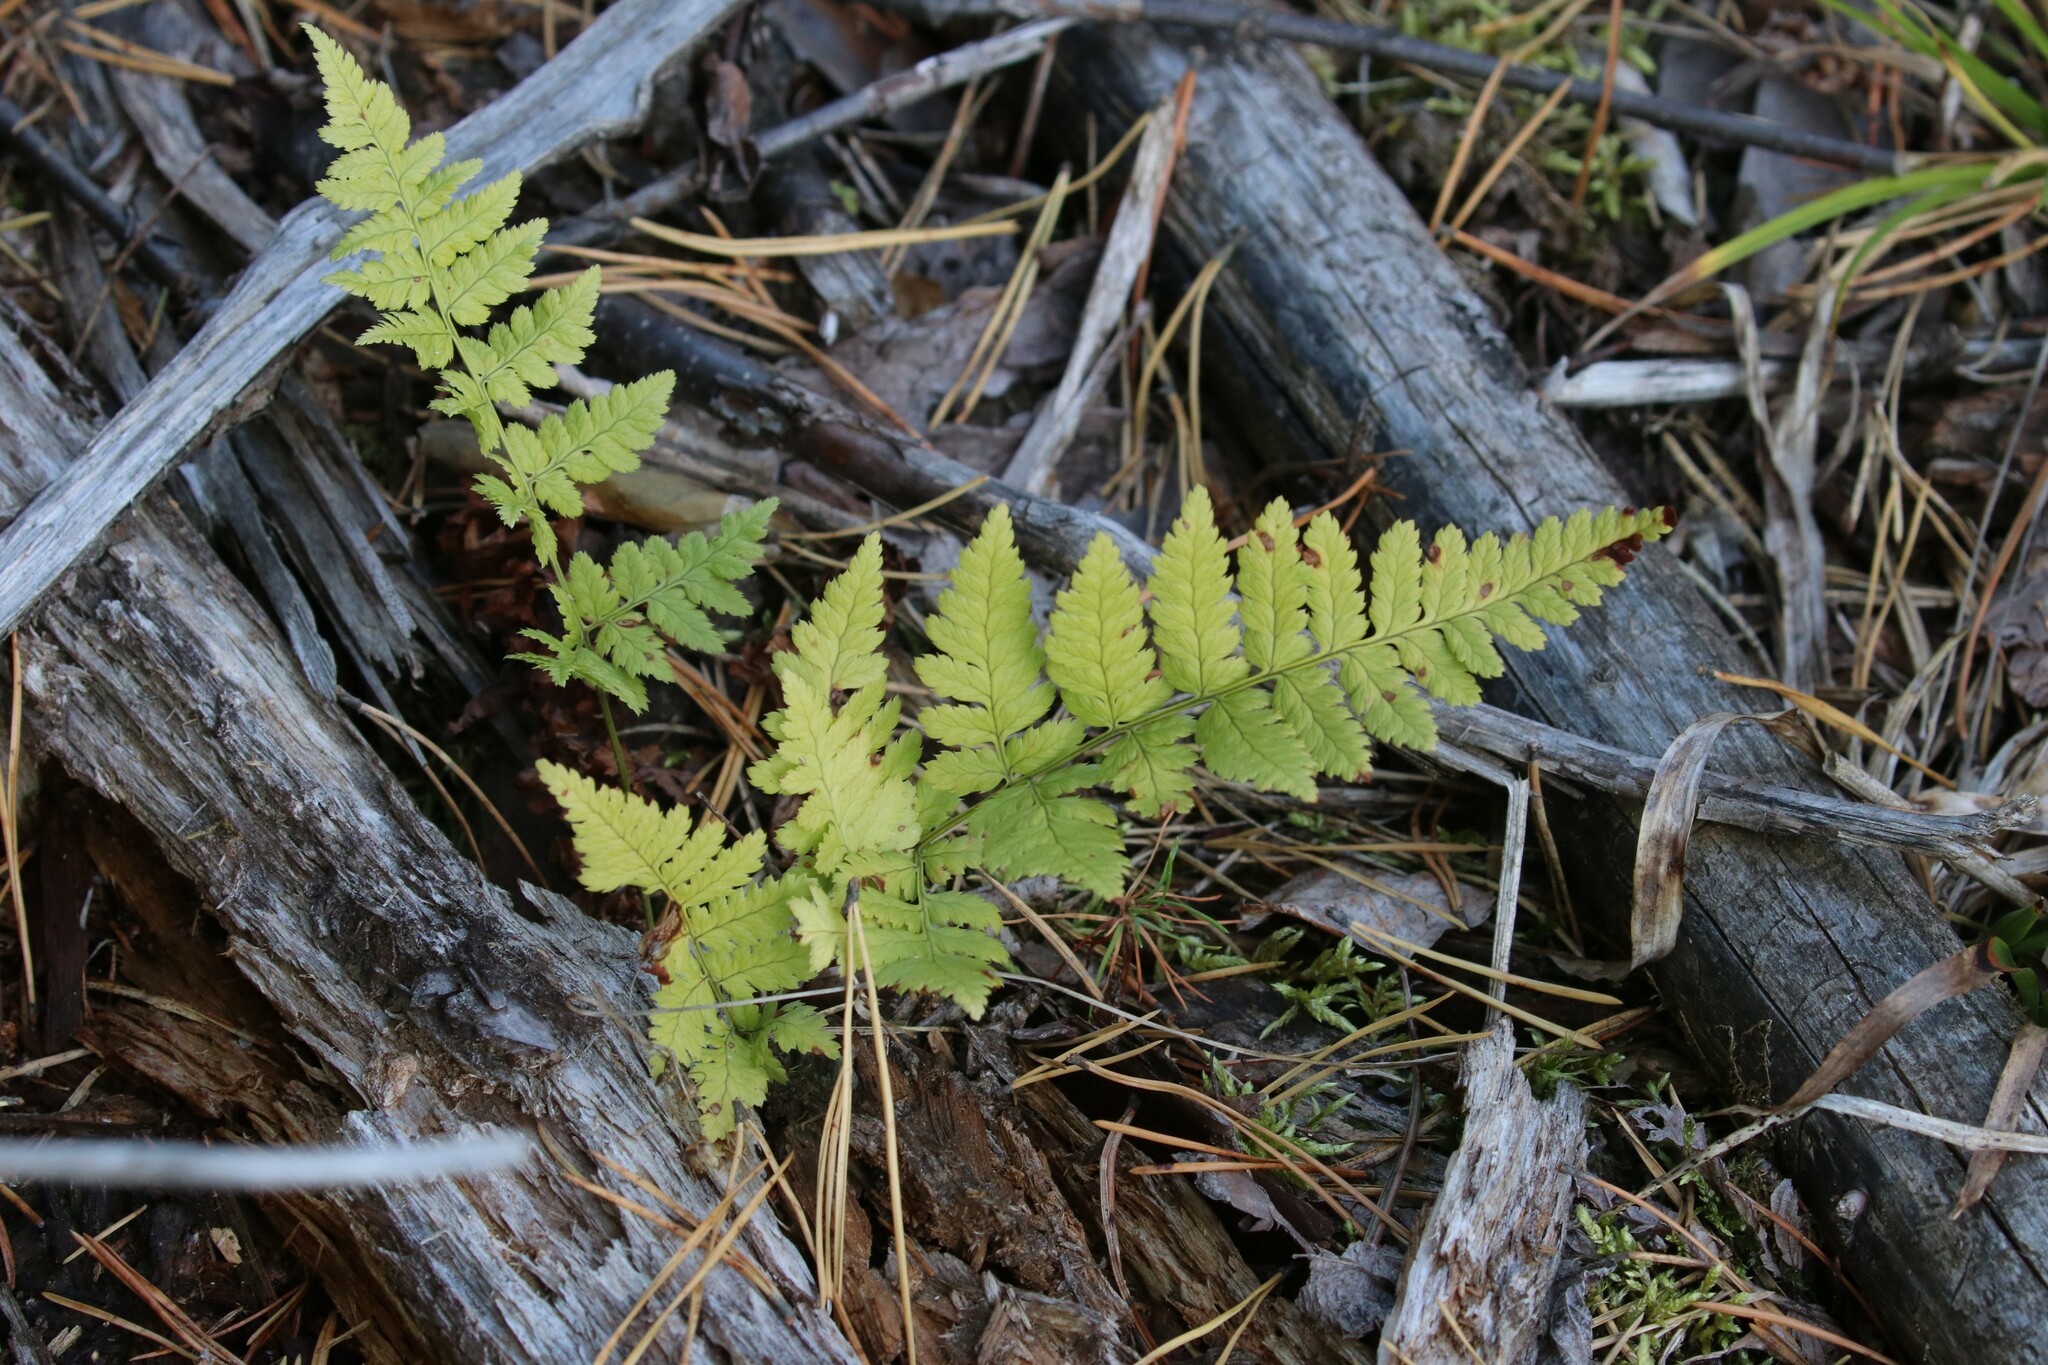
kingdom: Plantae
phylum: Tracheophyta
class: Polypodiopsida
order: Polypodiales
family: Dryopteridaceae
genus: Dryopteris
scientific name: Dryopteris carthusiana
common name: Narrow buckler-fern
